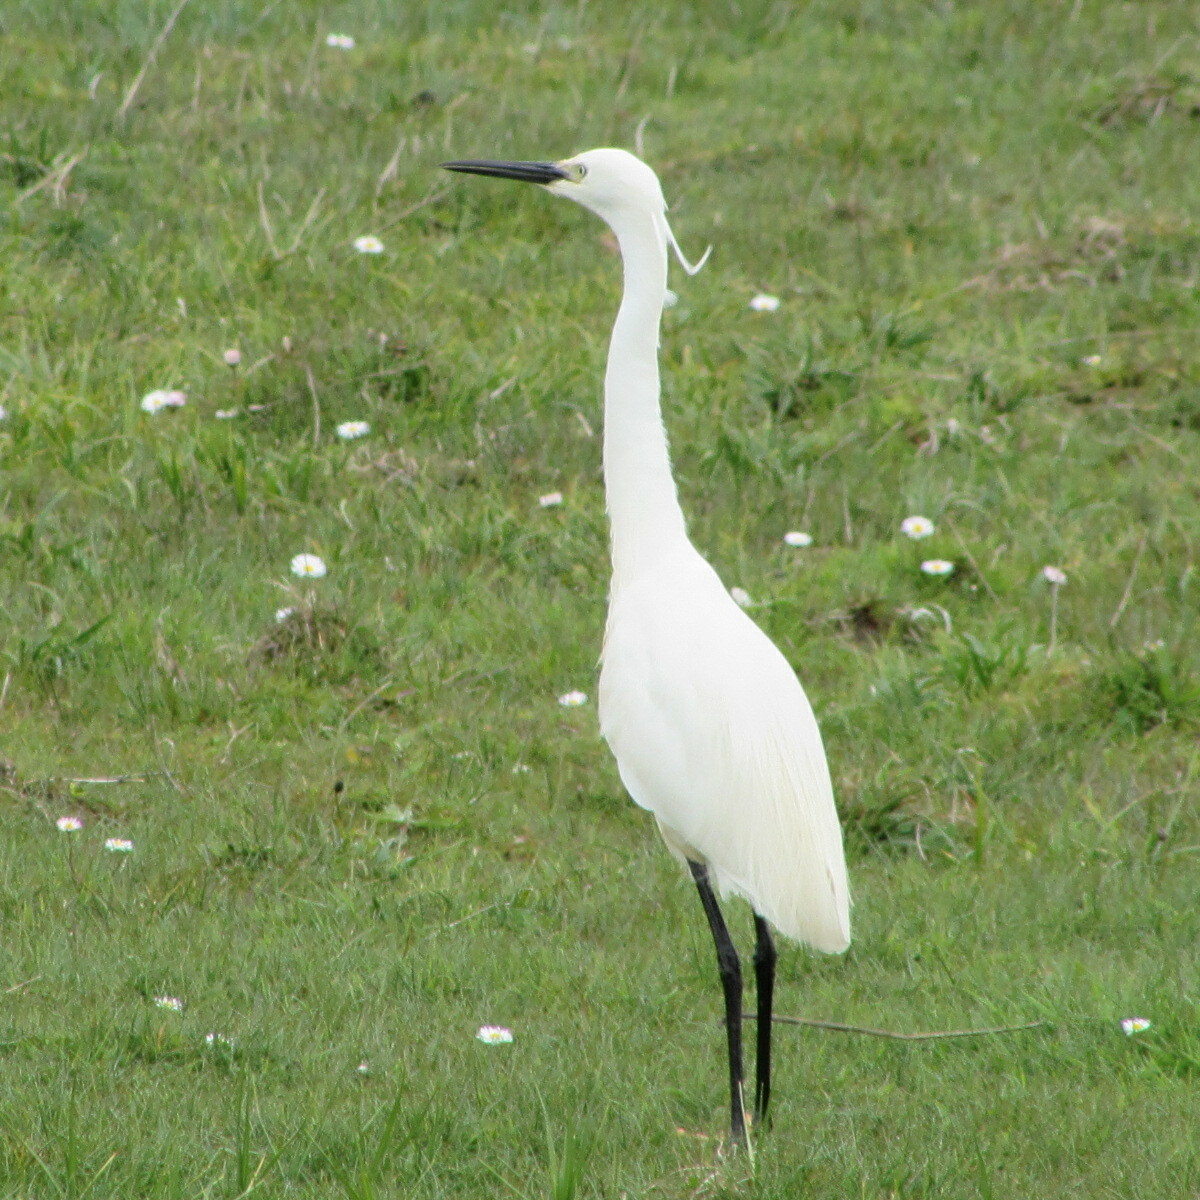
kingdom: Animalia
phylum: Chordata
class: Aves
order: Pelecaniformes
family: Ardeidae
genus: Egretta
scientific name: Egretta garzetta
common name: Little egret
